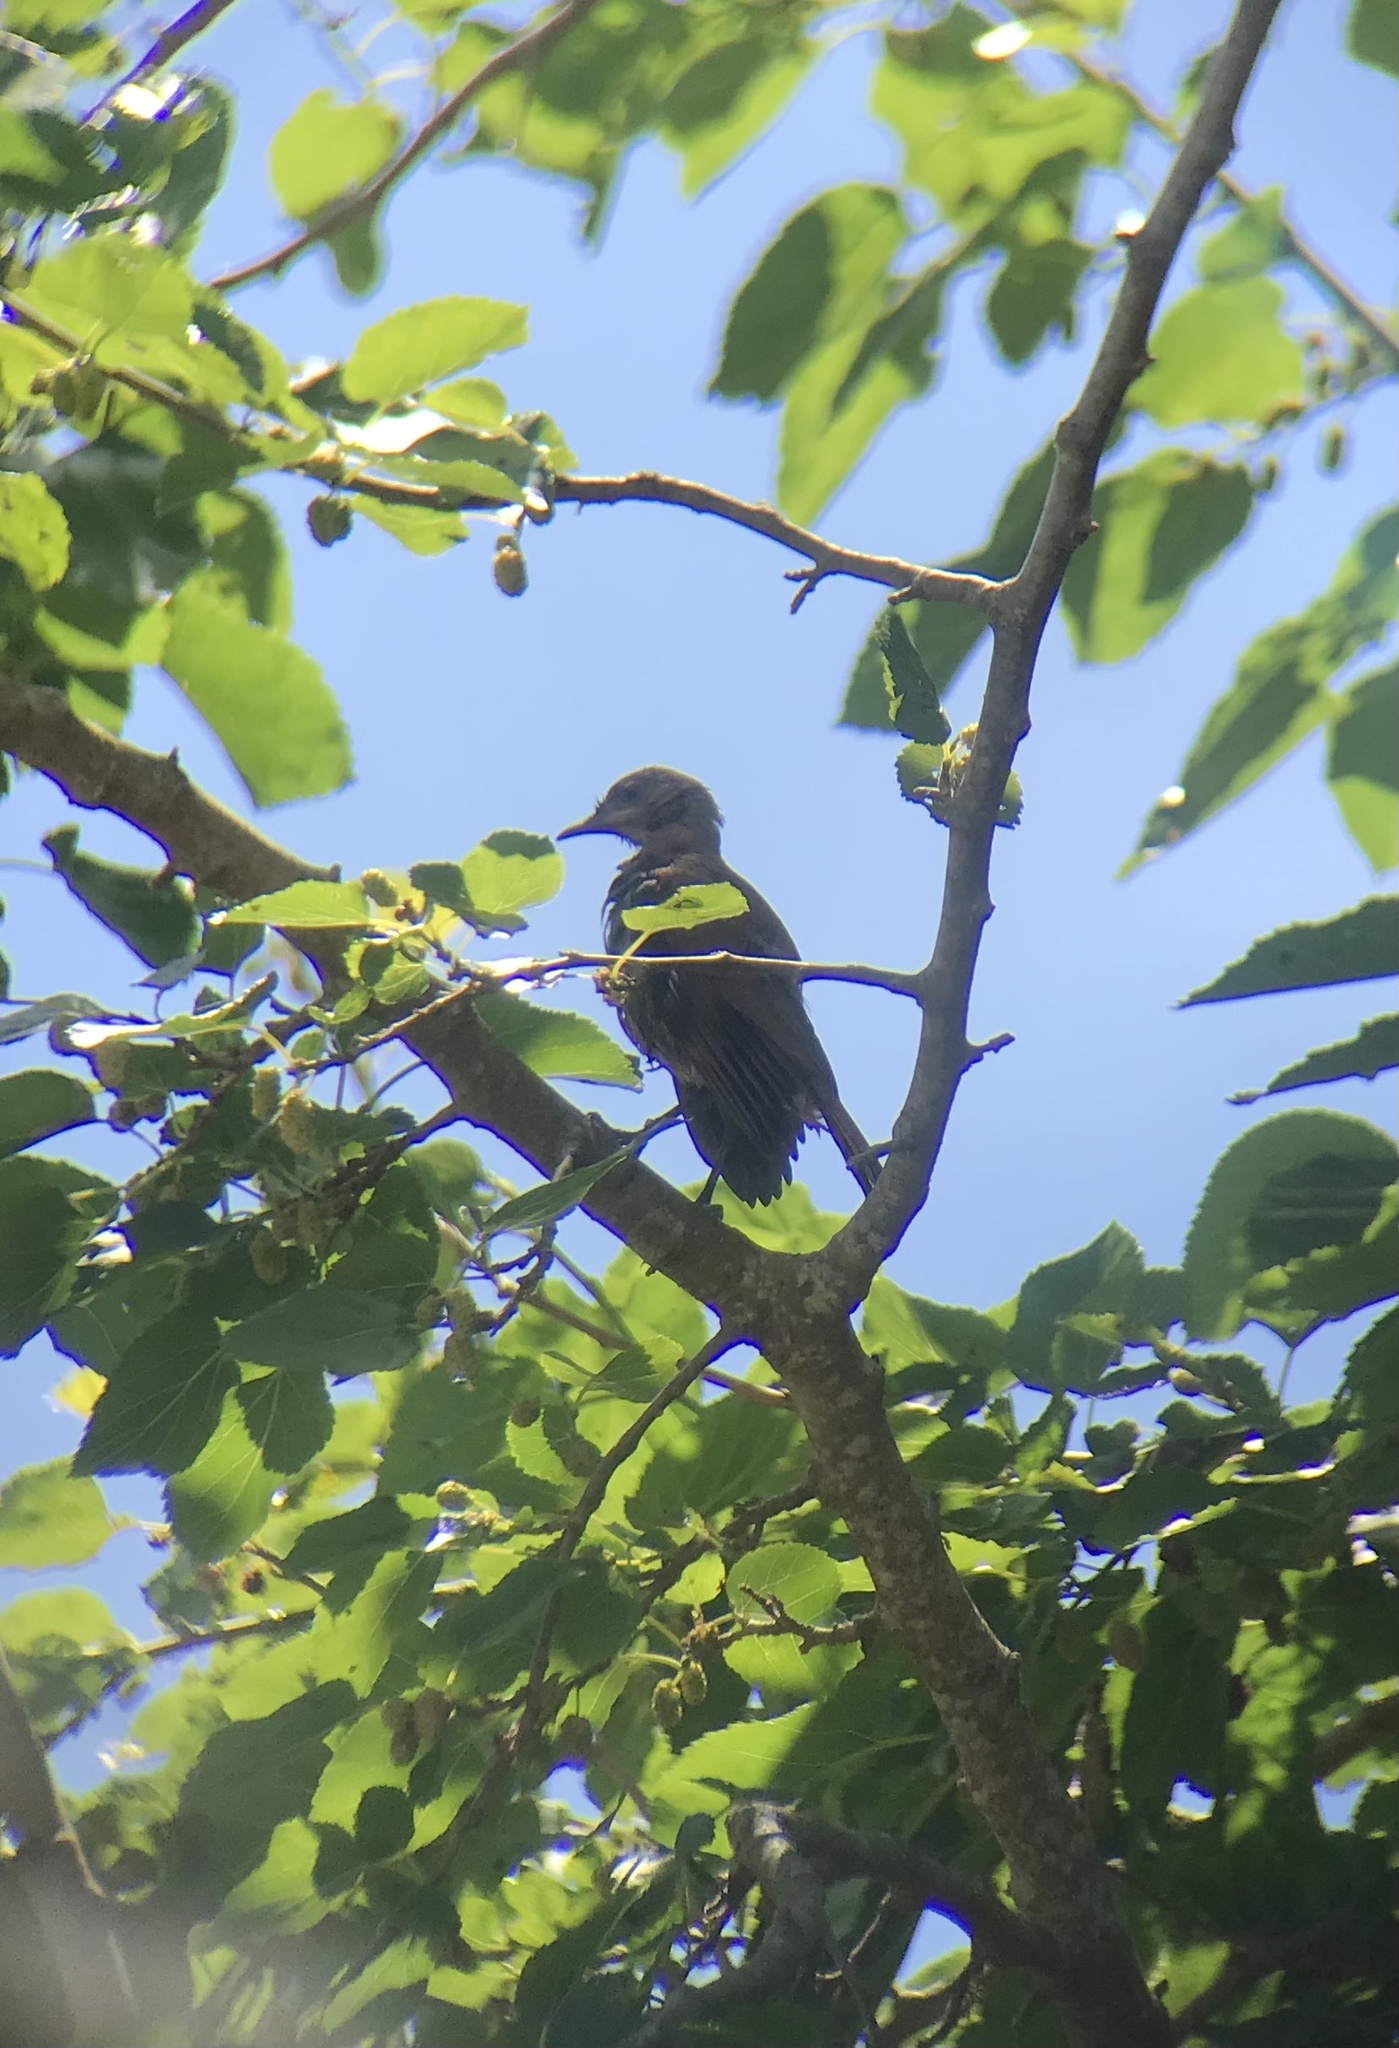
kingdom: Animalia
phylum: Chordata
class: Aves
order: Passeriformes
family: Furnariidae
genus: Furnarius
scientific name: Furnarius rufus
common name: Rufous hornero
